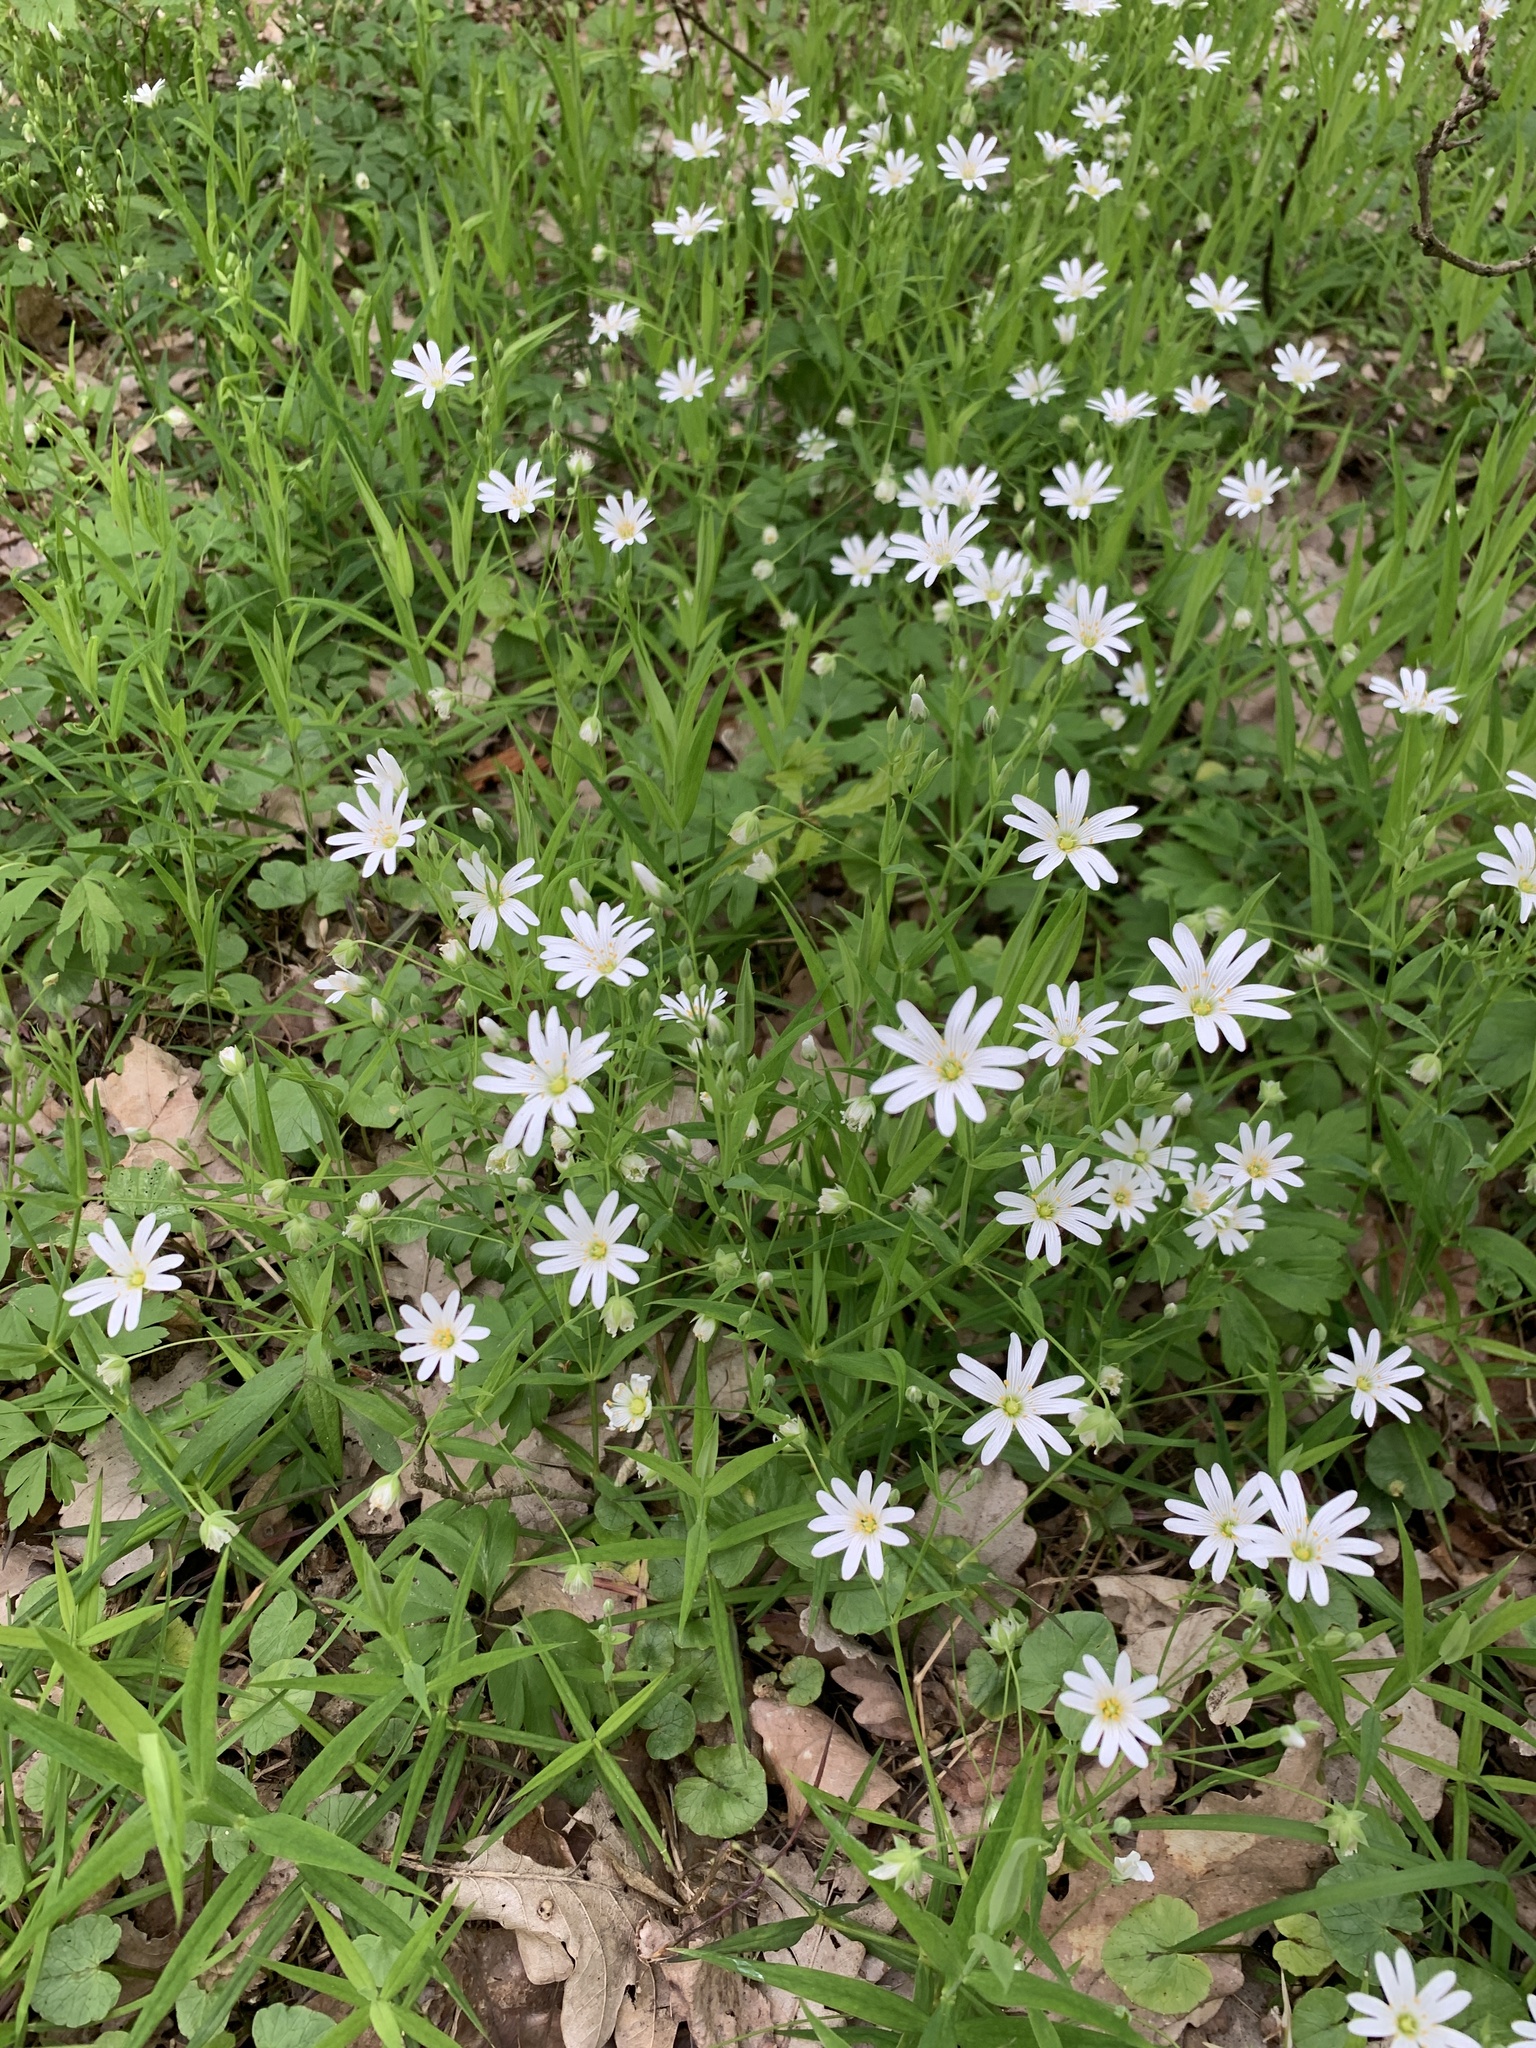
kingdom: Plantae
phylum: Tracheophyta
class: Magnoliopsida
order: Caryophyllales
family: Caryophyllaceae
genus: Rabelera
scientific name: Rabelera holostea
